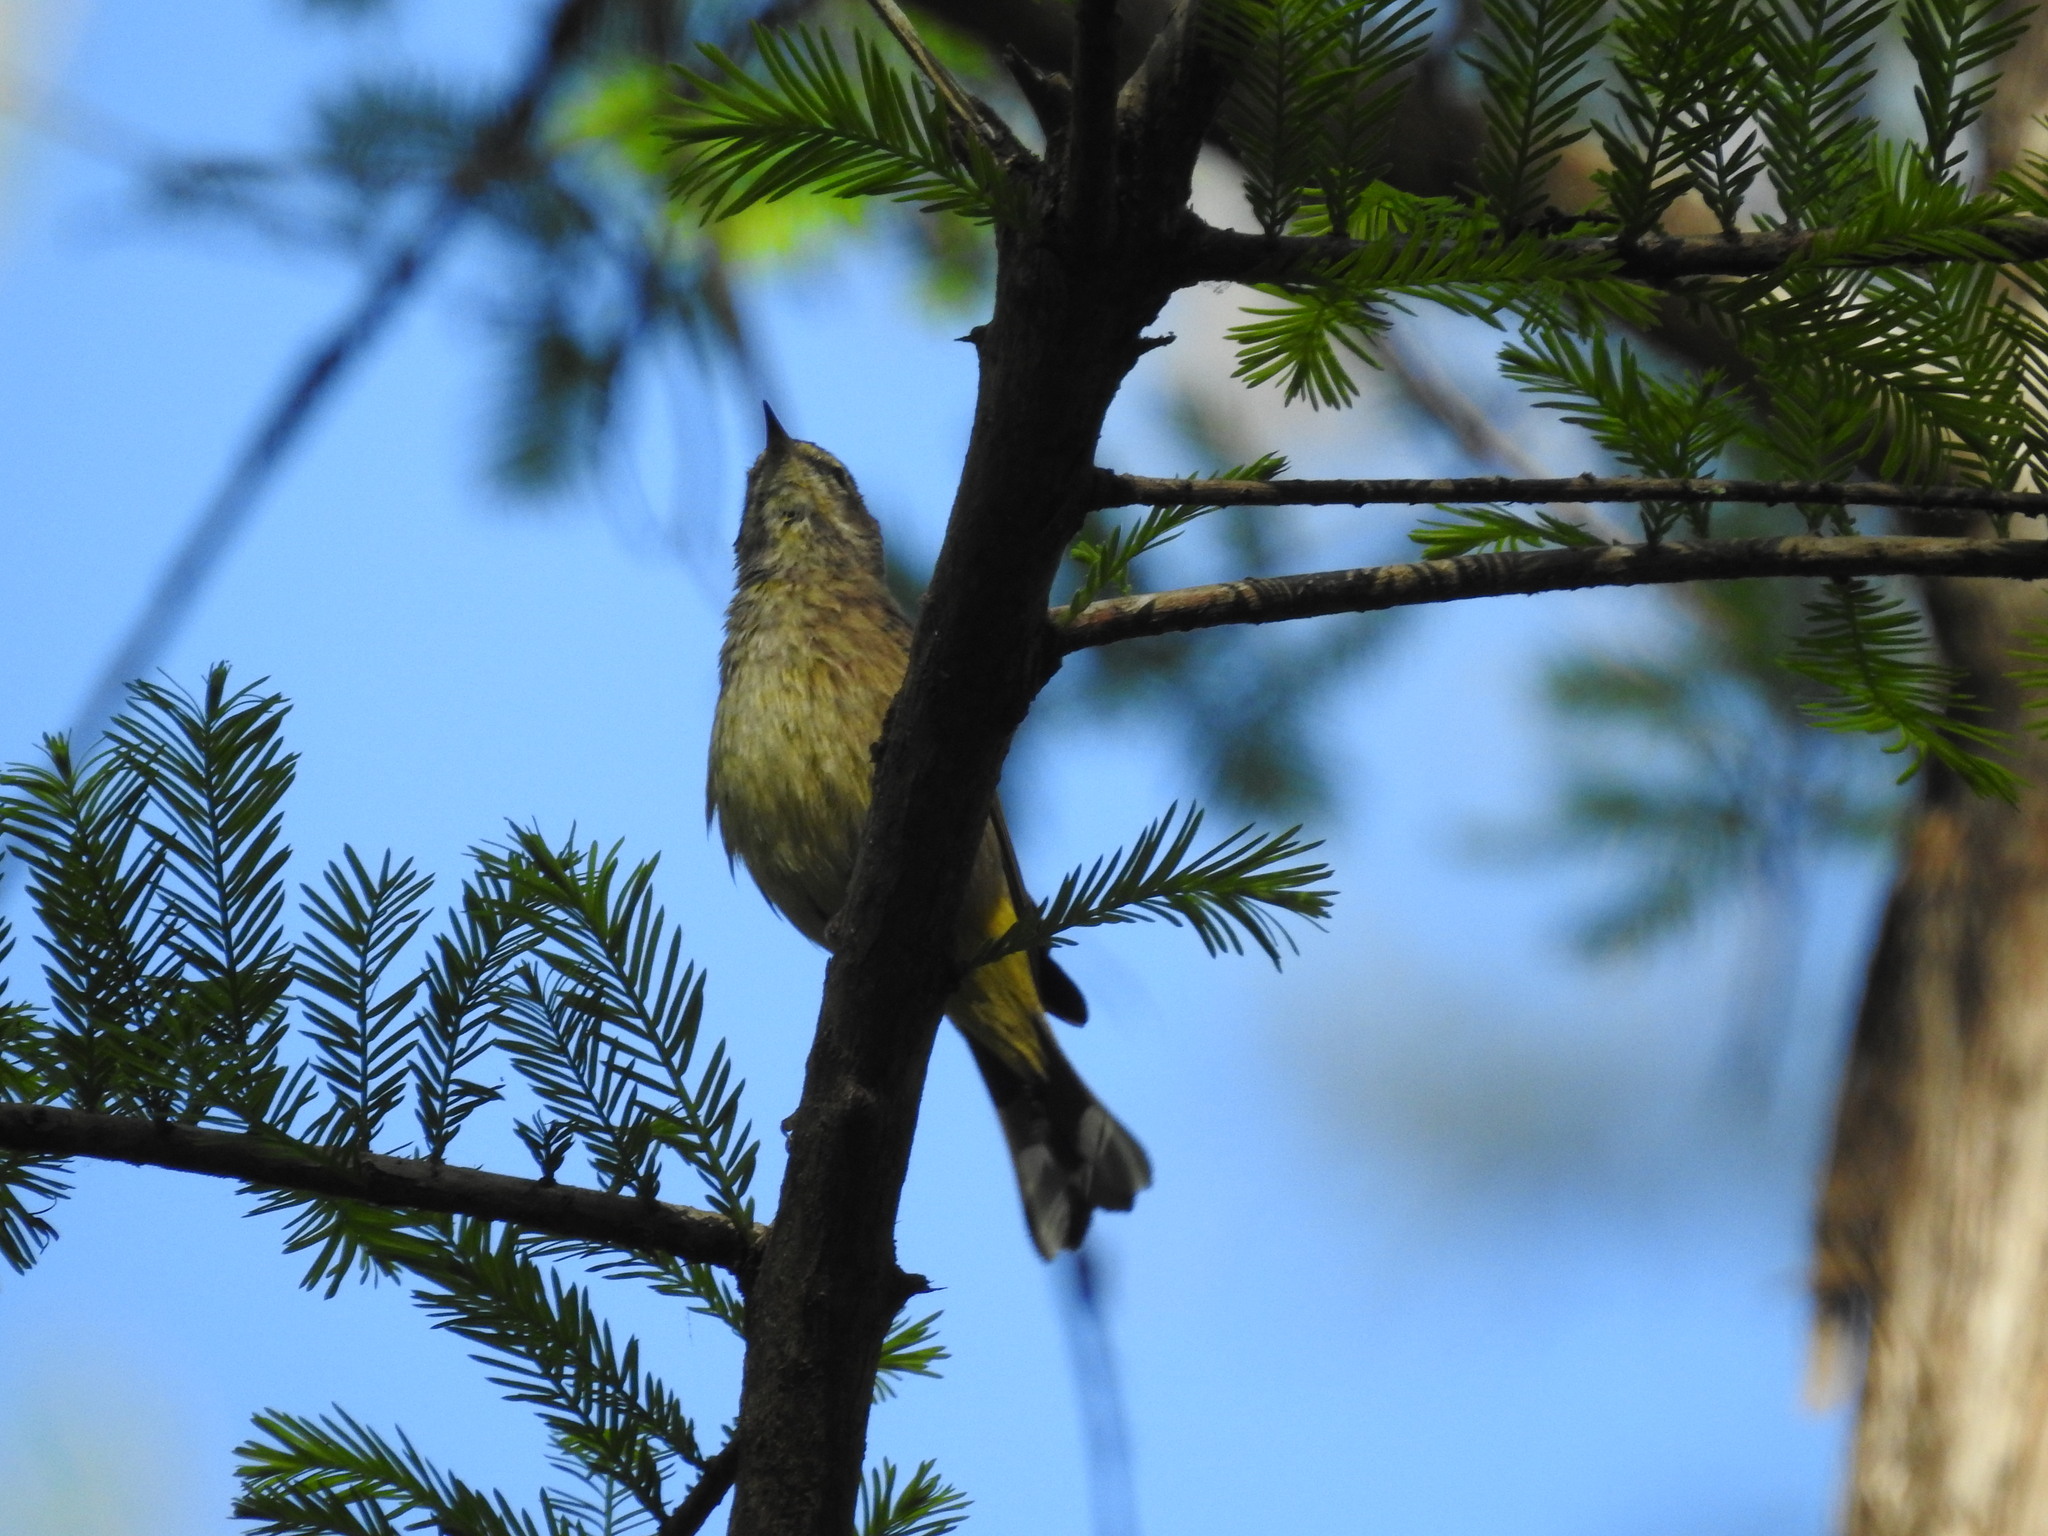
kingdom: Animalia
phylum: Chordata
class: Aves
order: Passeriformes
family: Parulidae
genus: Setophaga
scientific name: Setophaga palmarum
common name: Palm warbler
